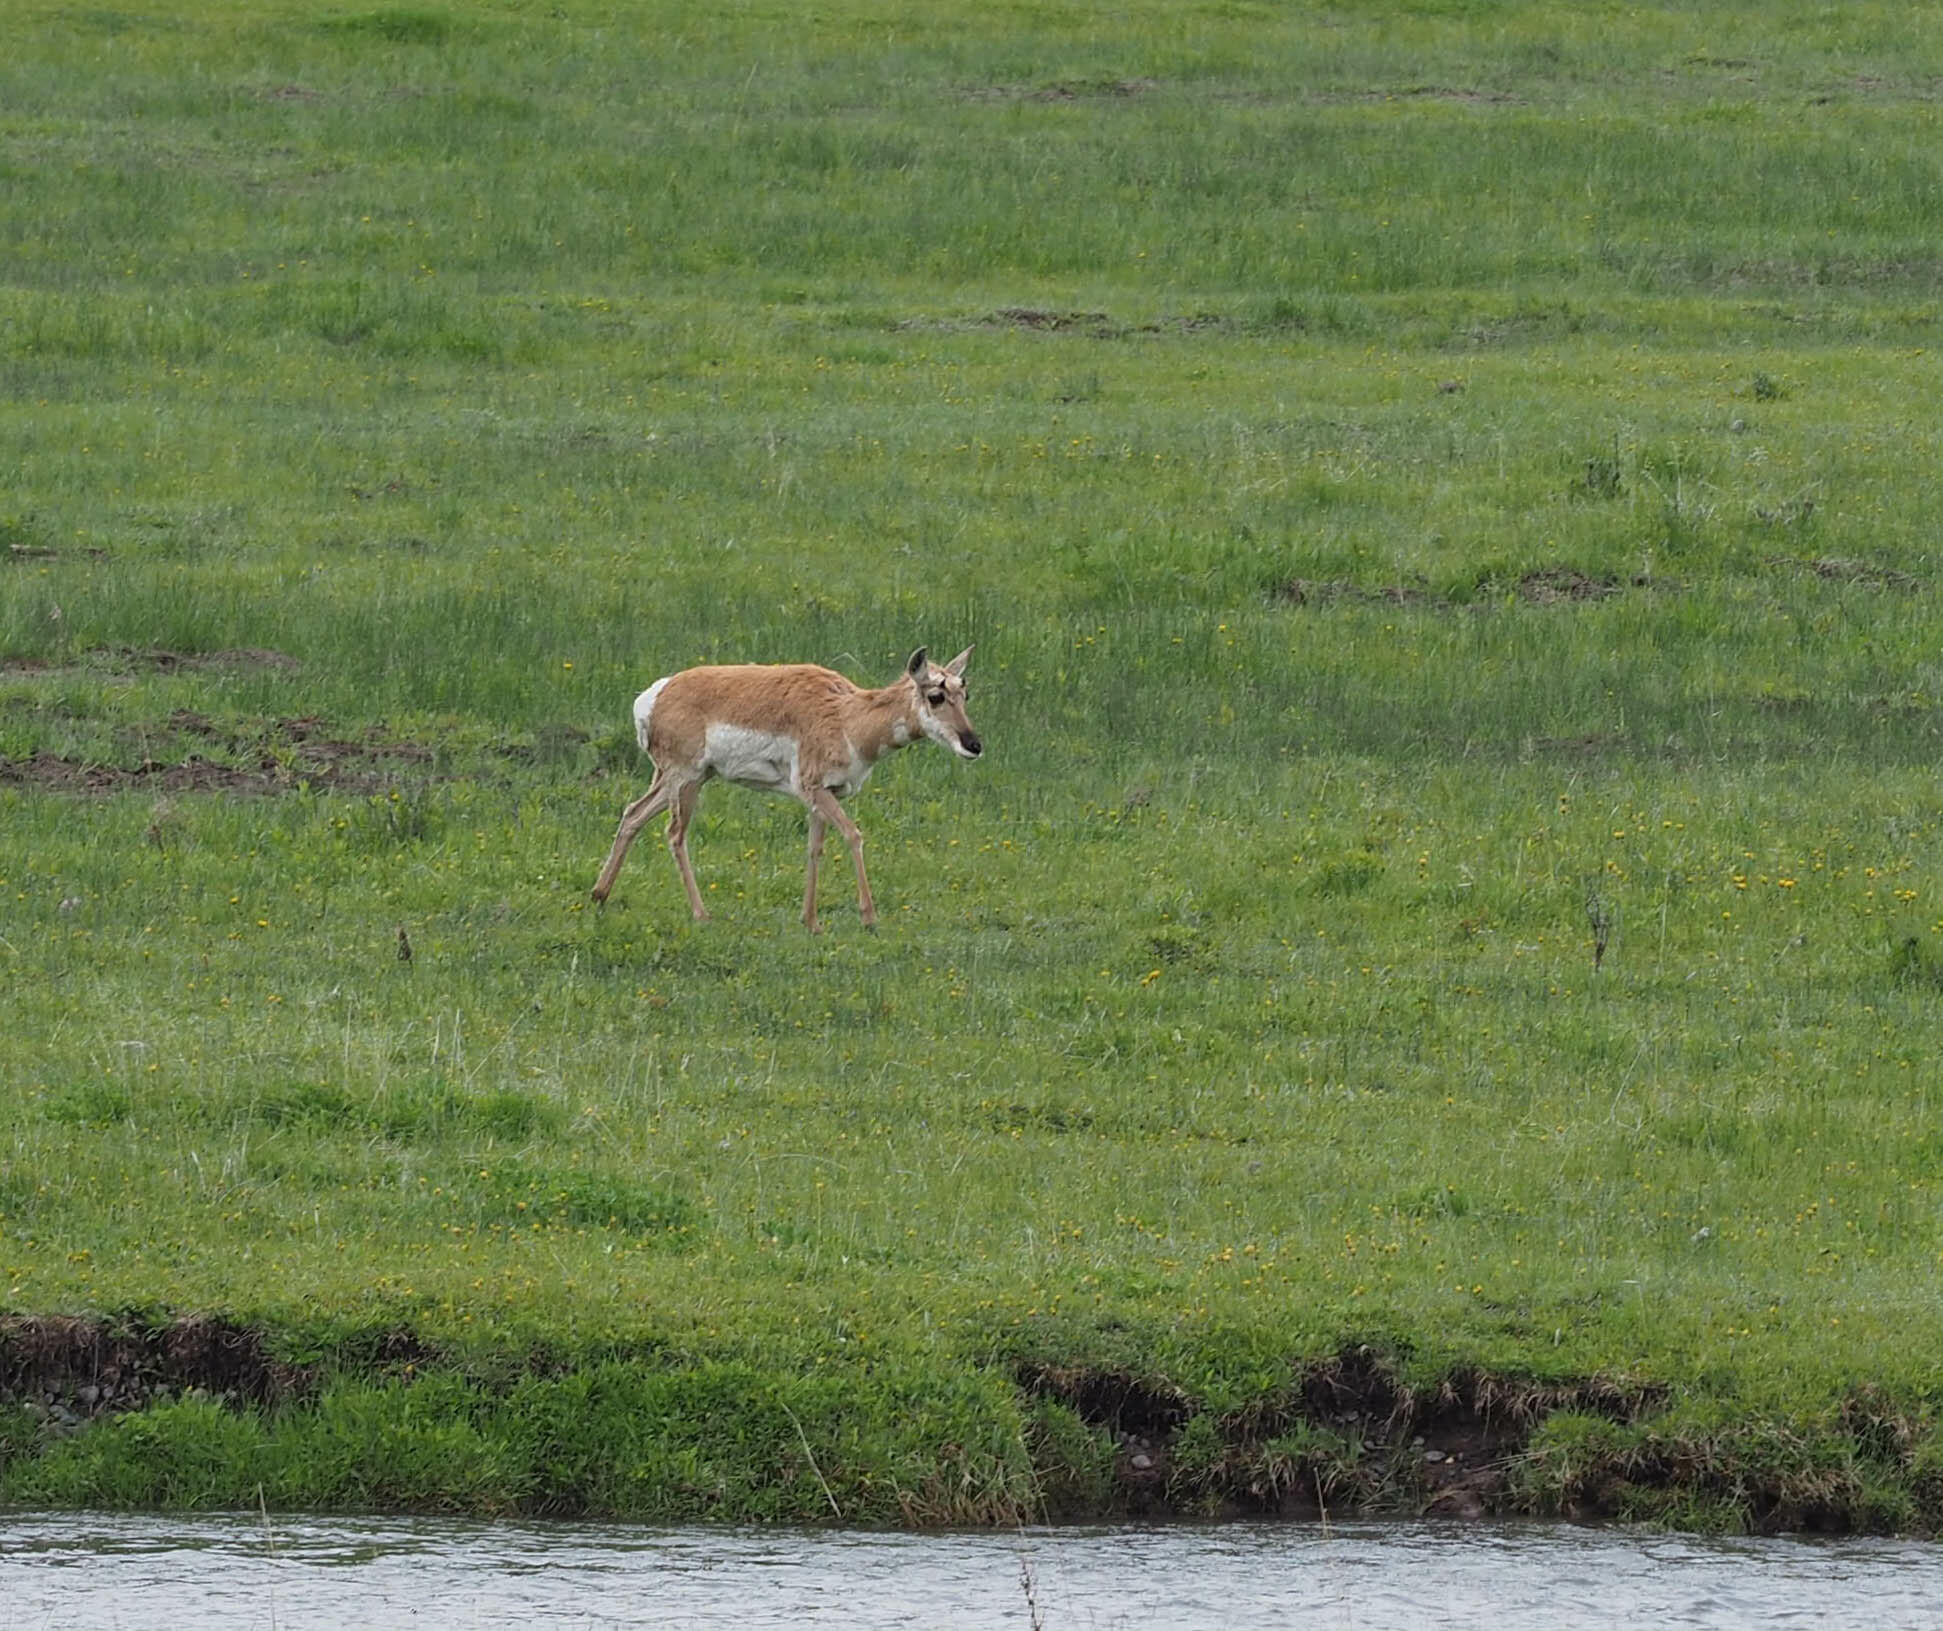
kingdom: Animalia
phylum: Chordata
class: Mammalia
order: Artiodactyla
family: Antilocapridae
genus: Antilocapra
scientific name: Antilocapra americana
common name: Pronghorn
